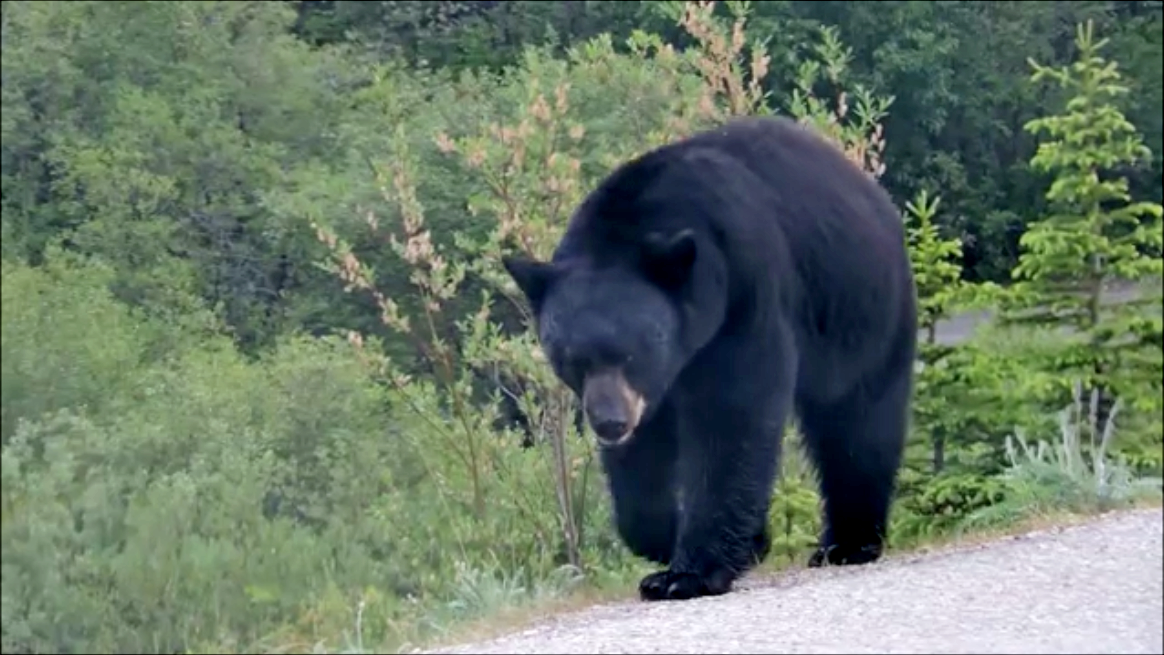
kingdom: Animalia
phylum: Chordata
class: Mammalia
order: Carnivora
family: Ursidae
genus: Ursus
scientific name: Ursus americanus
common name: American black bear
